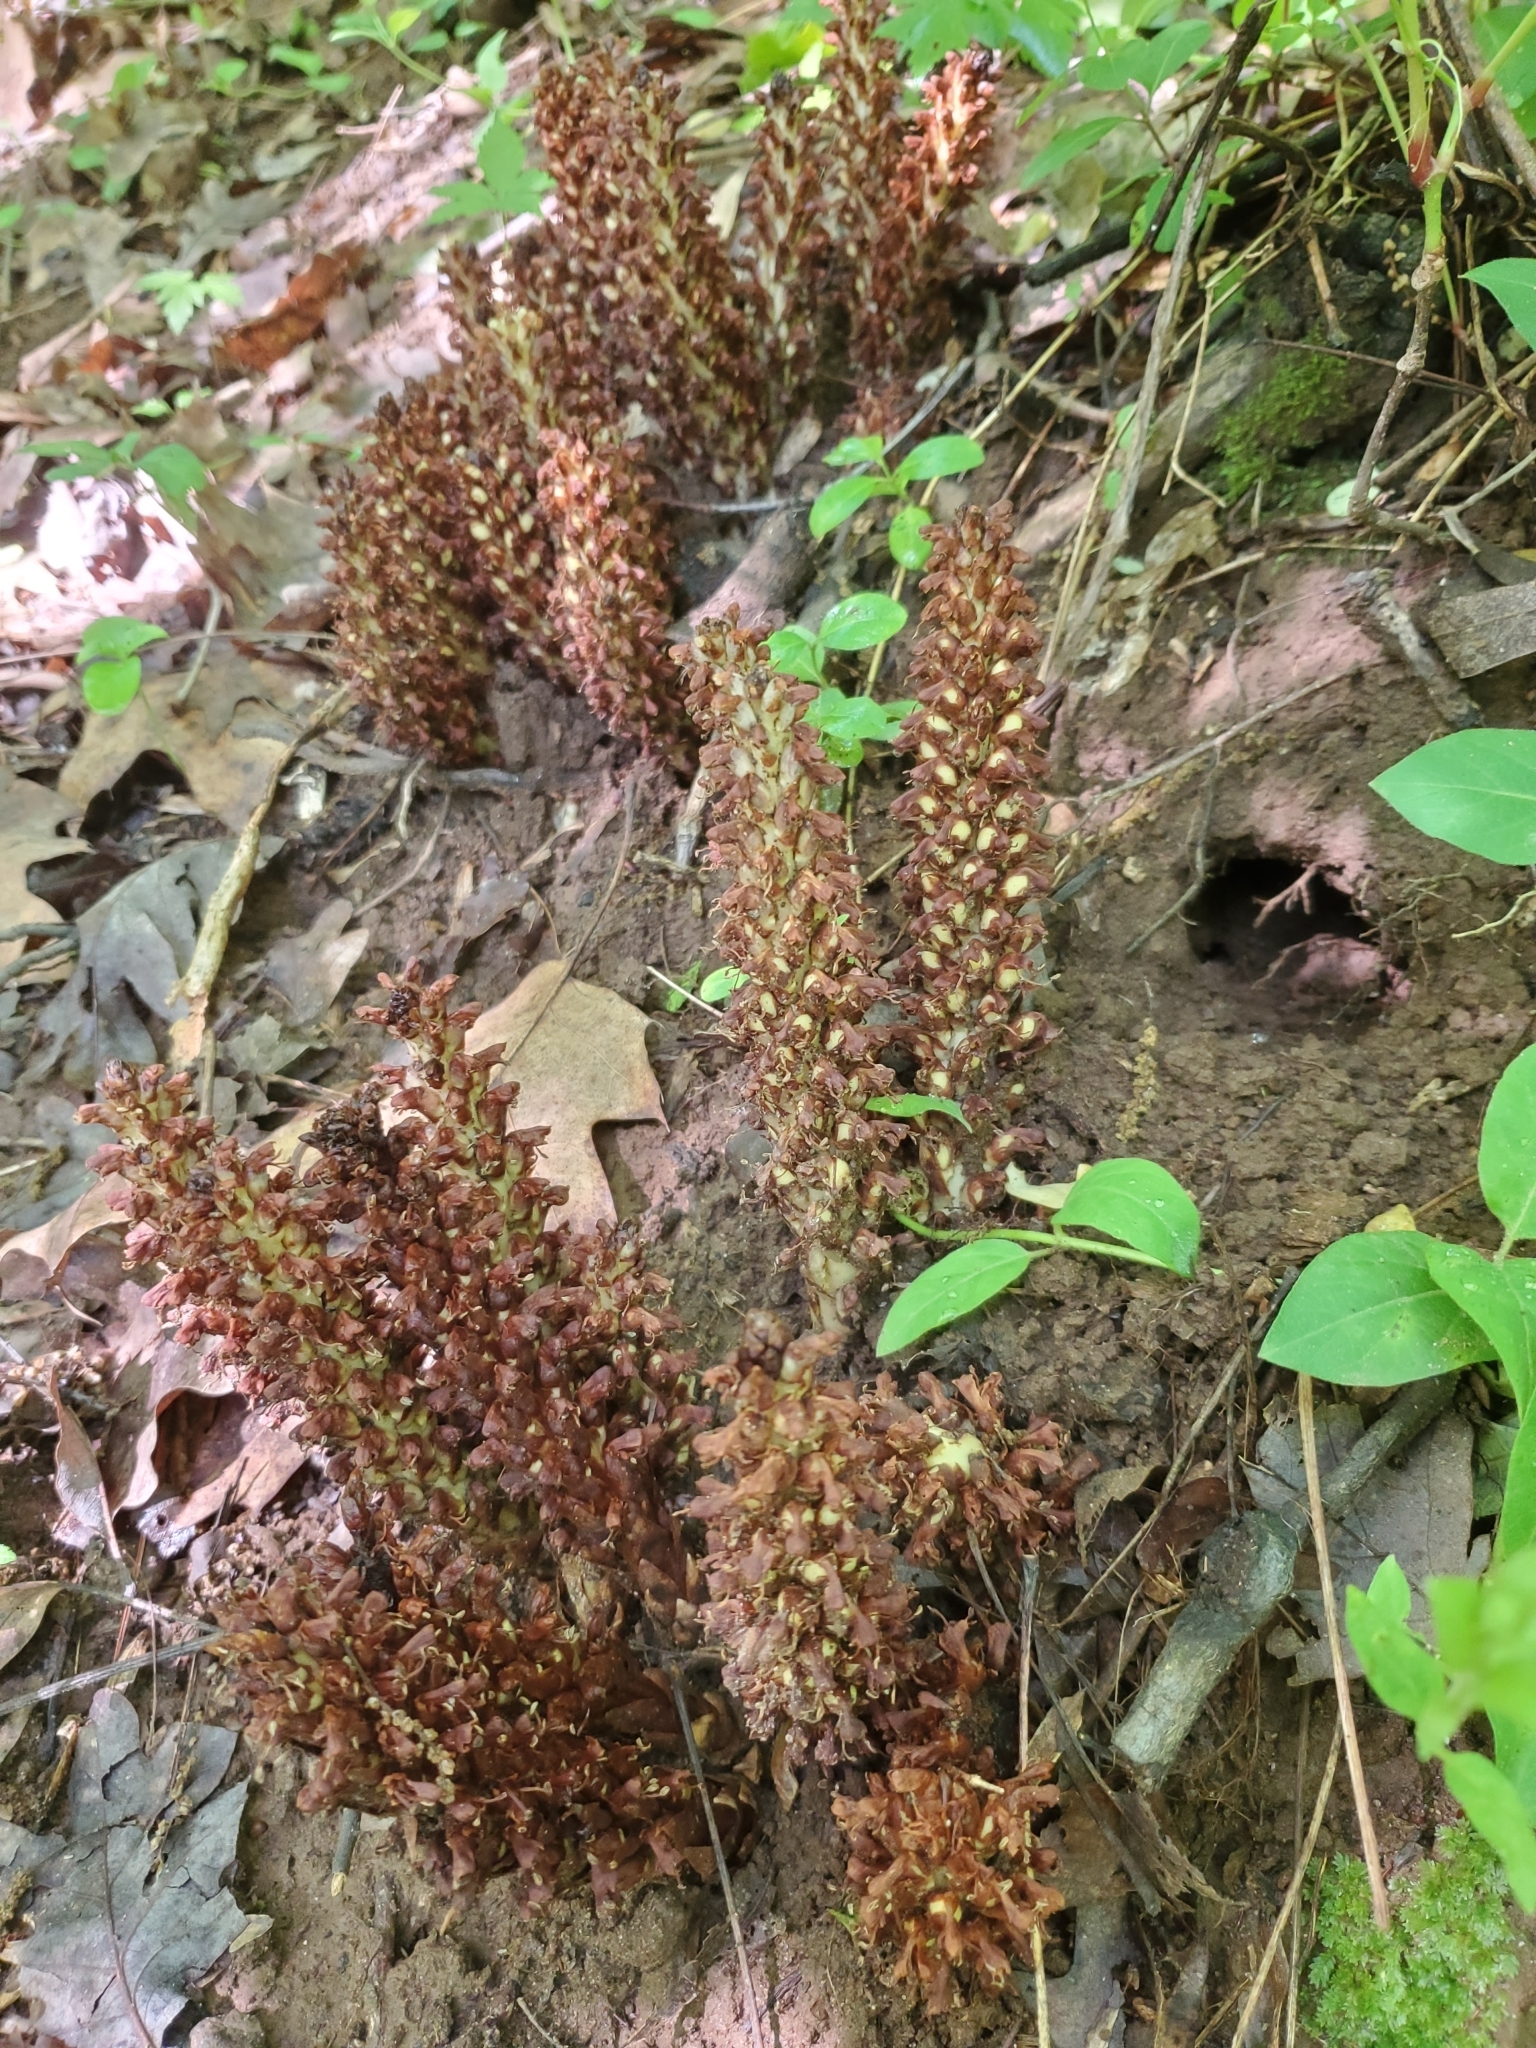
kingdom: Plantae
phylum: Tracheophyta
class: Magnoliopsida
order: Lamiales
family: Orobanchaceae
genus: Conopholis
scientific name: Conopholis americana
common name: American cancer-root
